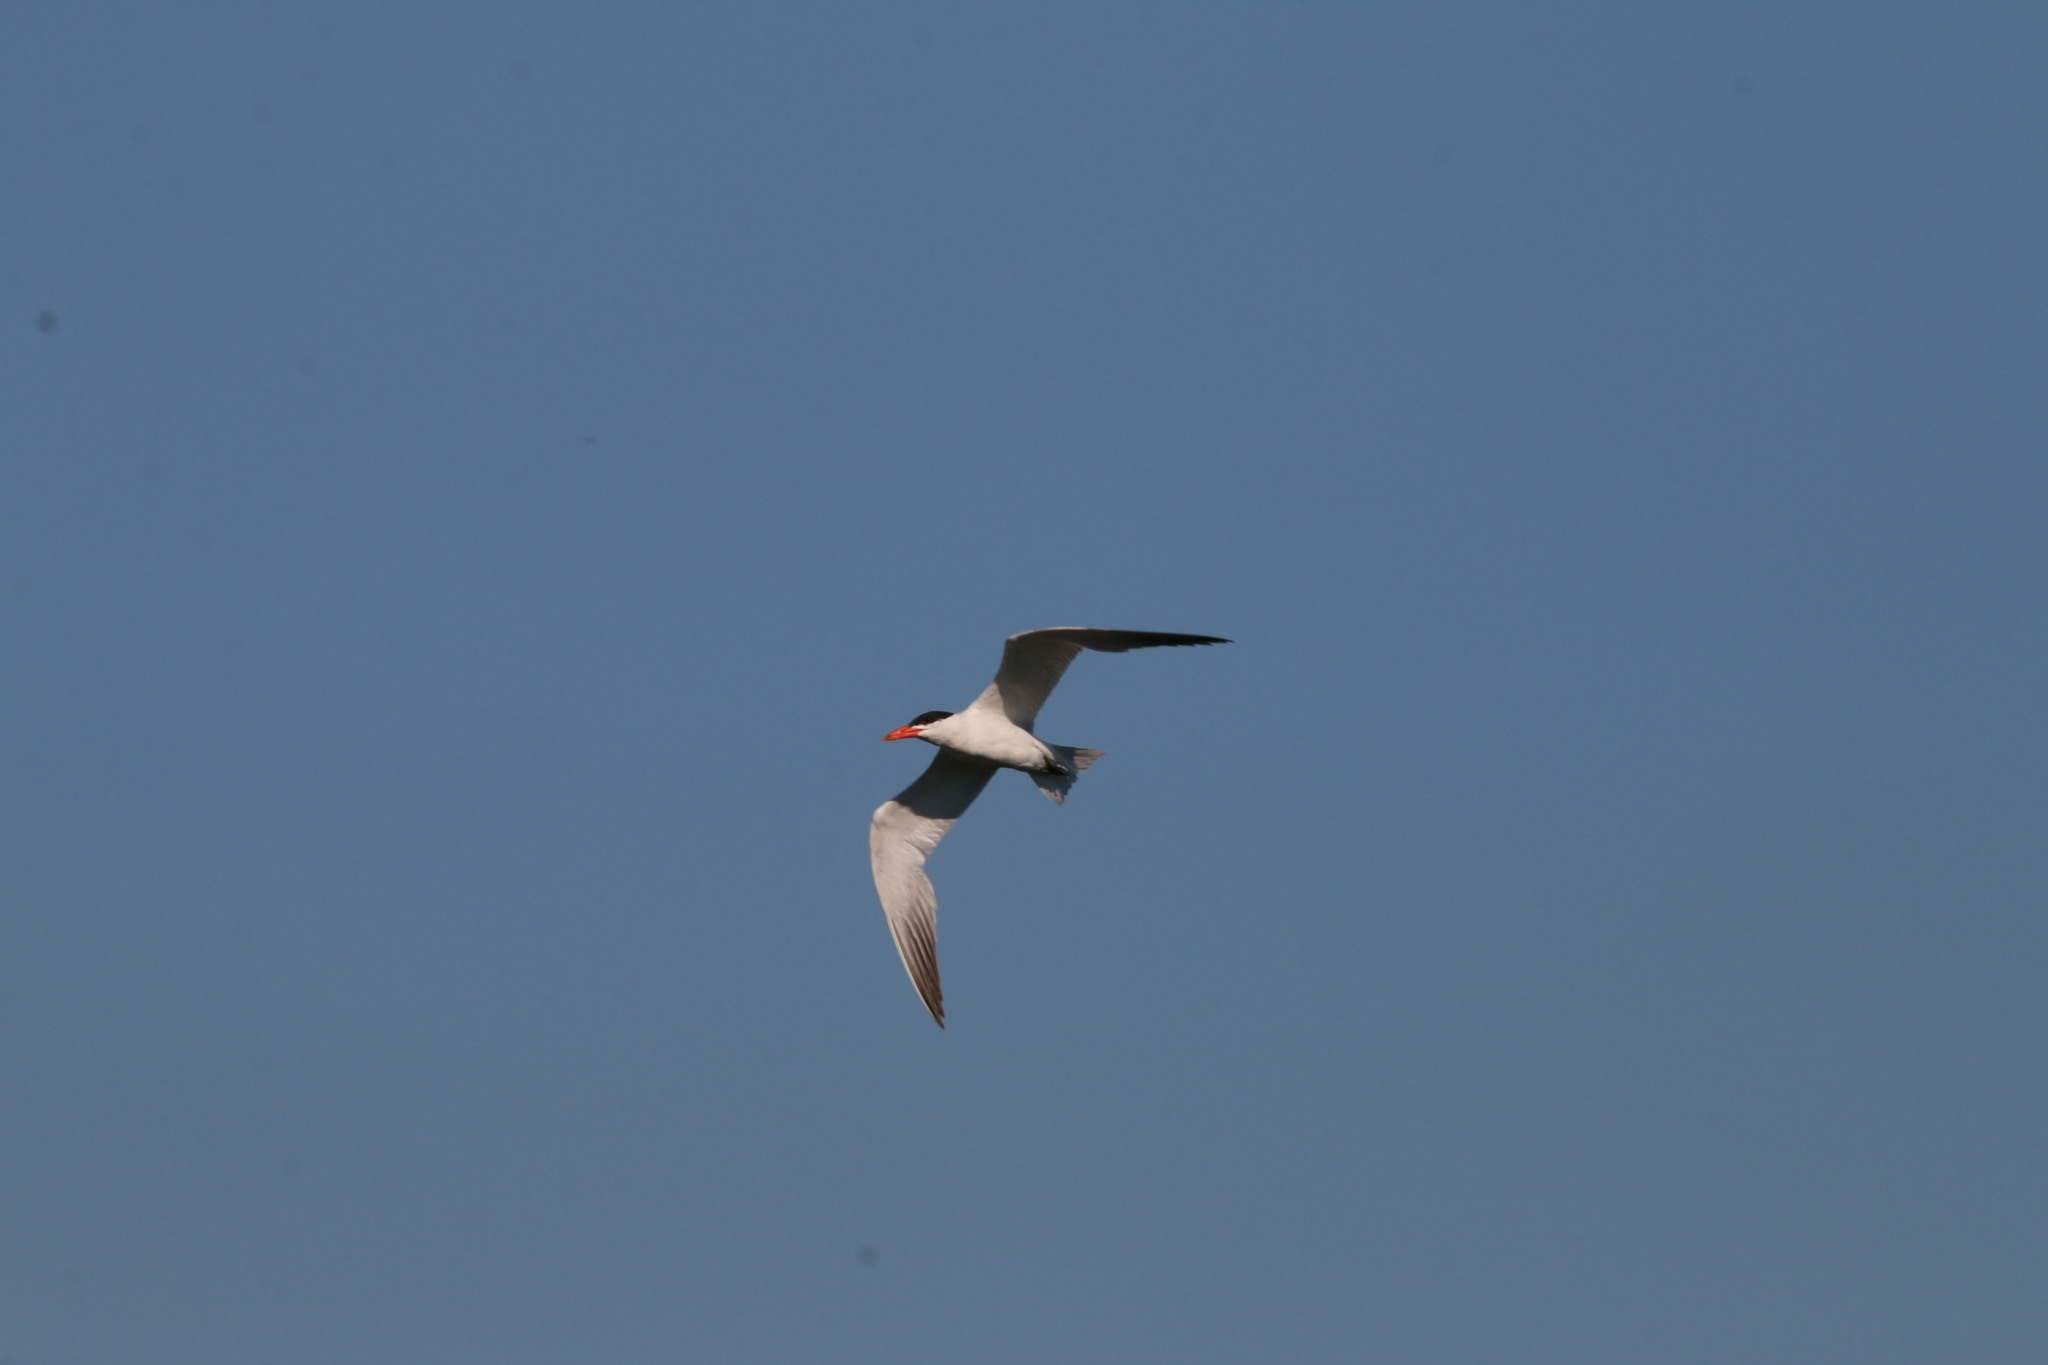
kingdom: Animalia
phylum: Chordata
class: Aves
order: Charadriiformes
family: Laridae
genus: Hydroprogne
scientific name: Hydroprogne caspia
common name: Caspian tern
